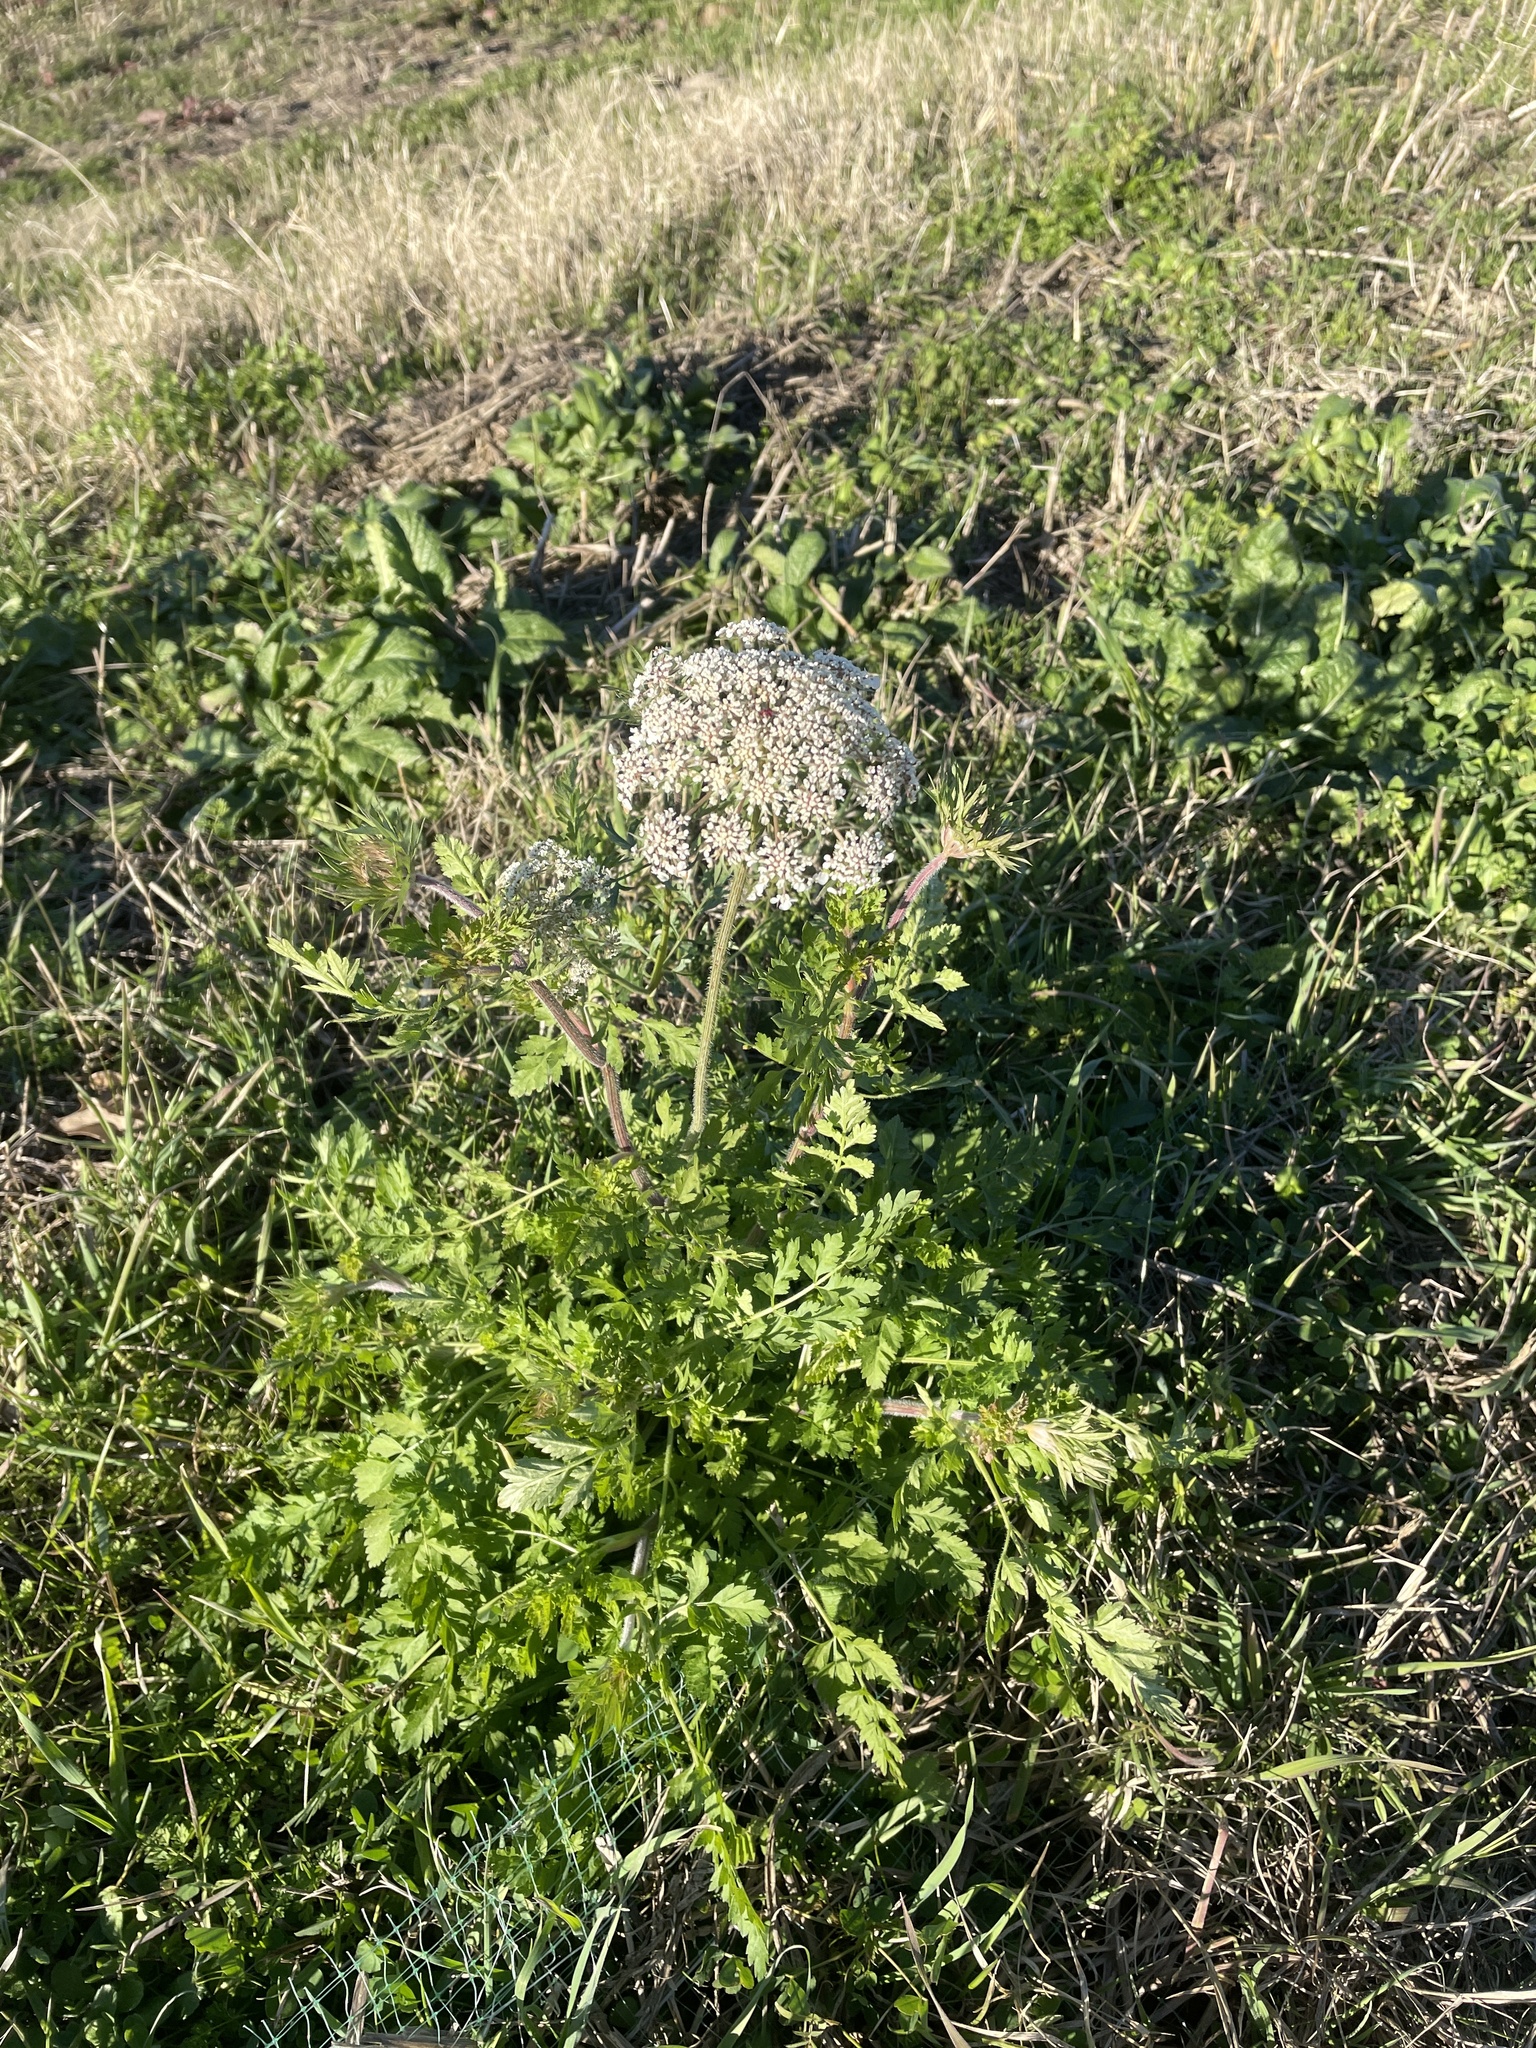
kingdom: Plantae
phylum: Tracheophyta
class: Magnoliopsida
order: Apiales
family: Apiaceae
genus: Daucus
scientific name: Daucus carota
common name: Wild carrot
